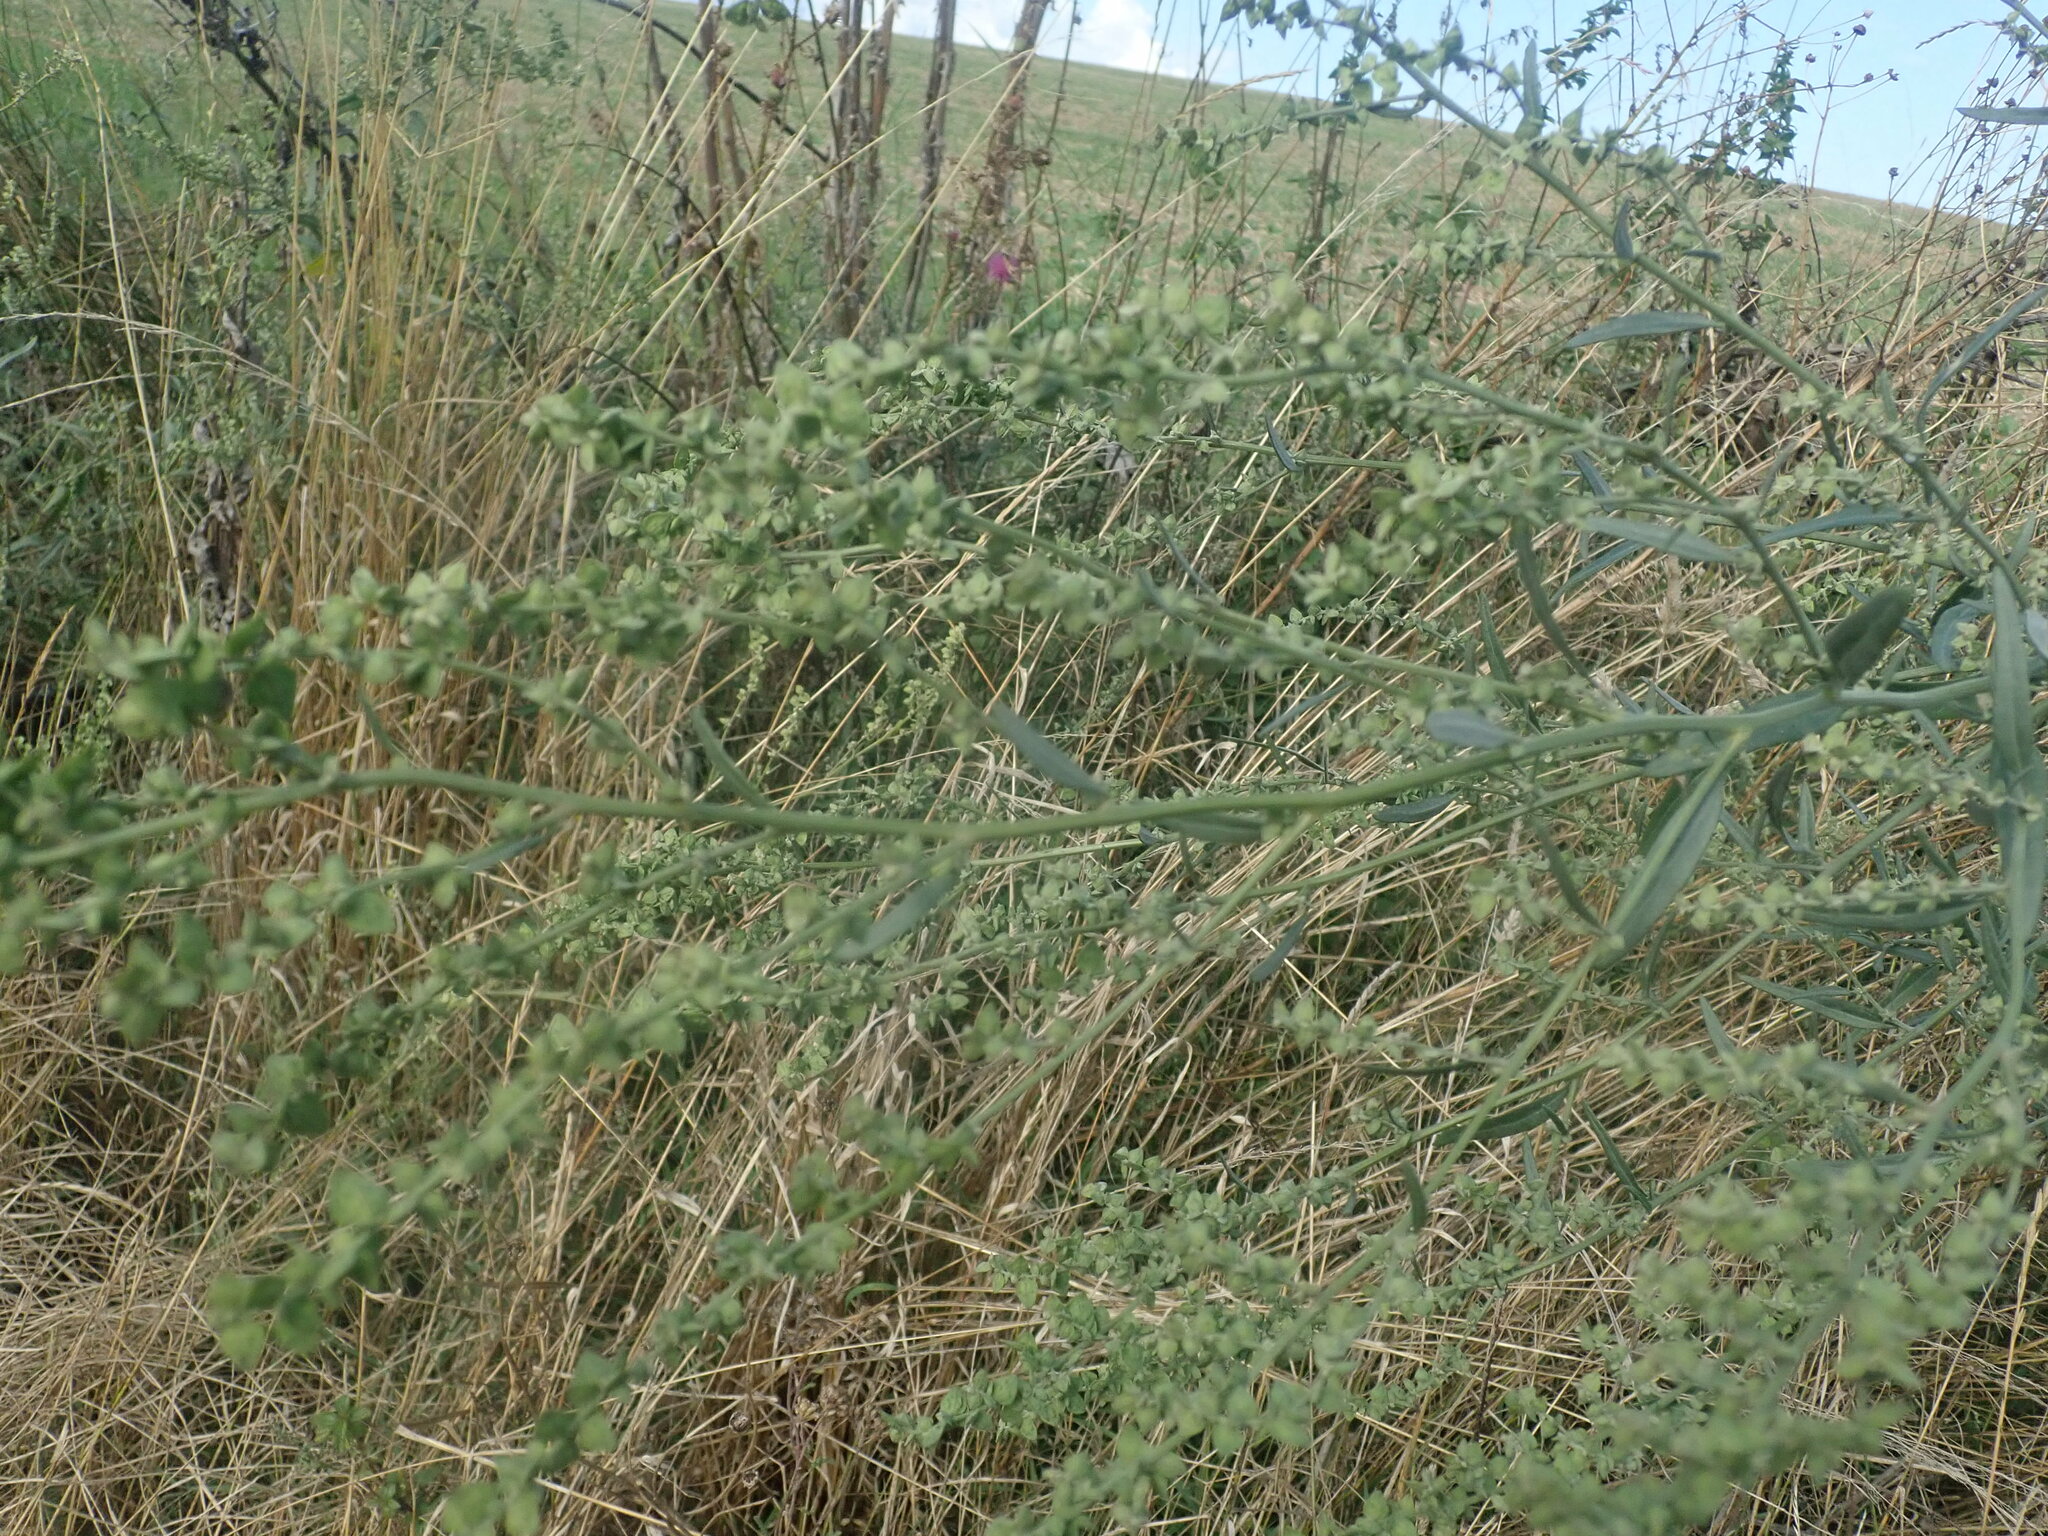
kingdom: Plantae
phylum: Tracheophyta
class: Magnoliopsida
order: Caryophyllales
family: Amaranthaceae
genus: Atriplex
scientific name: Atriplex oblongifolia
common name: Oblongleaf orache
